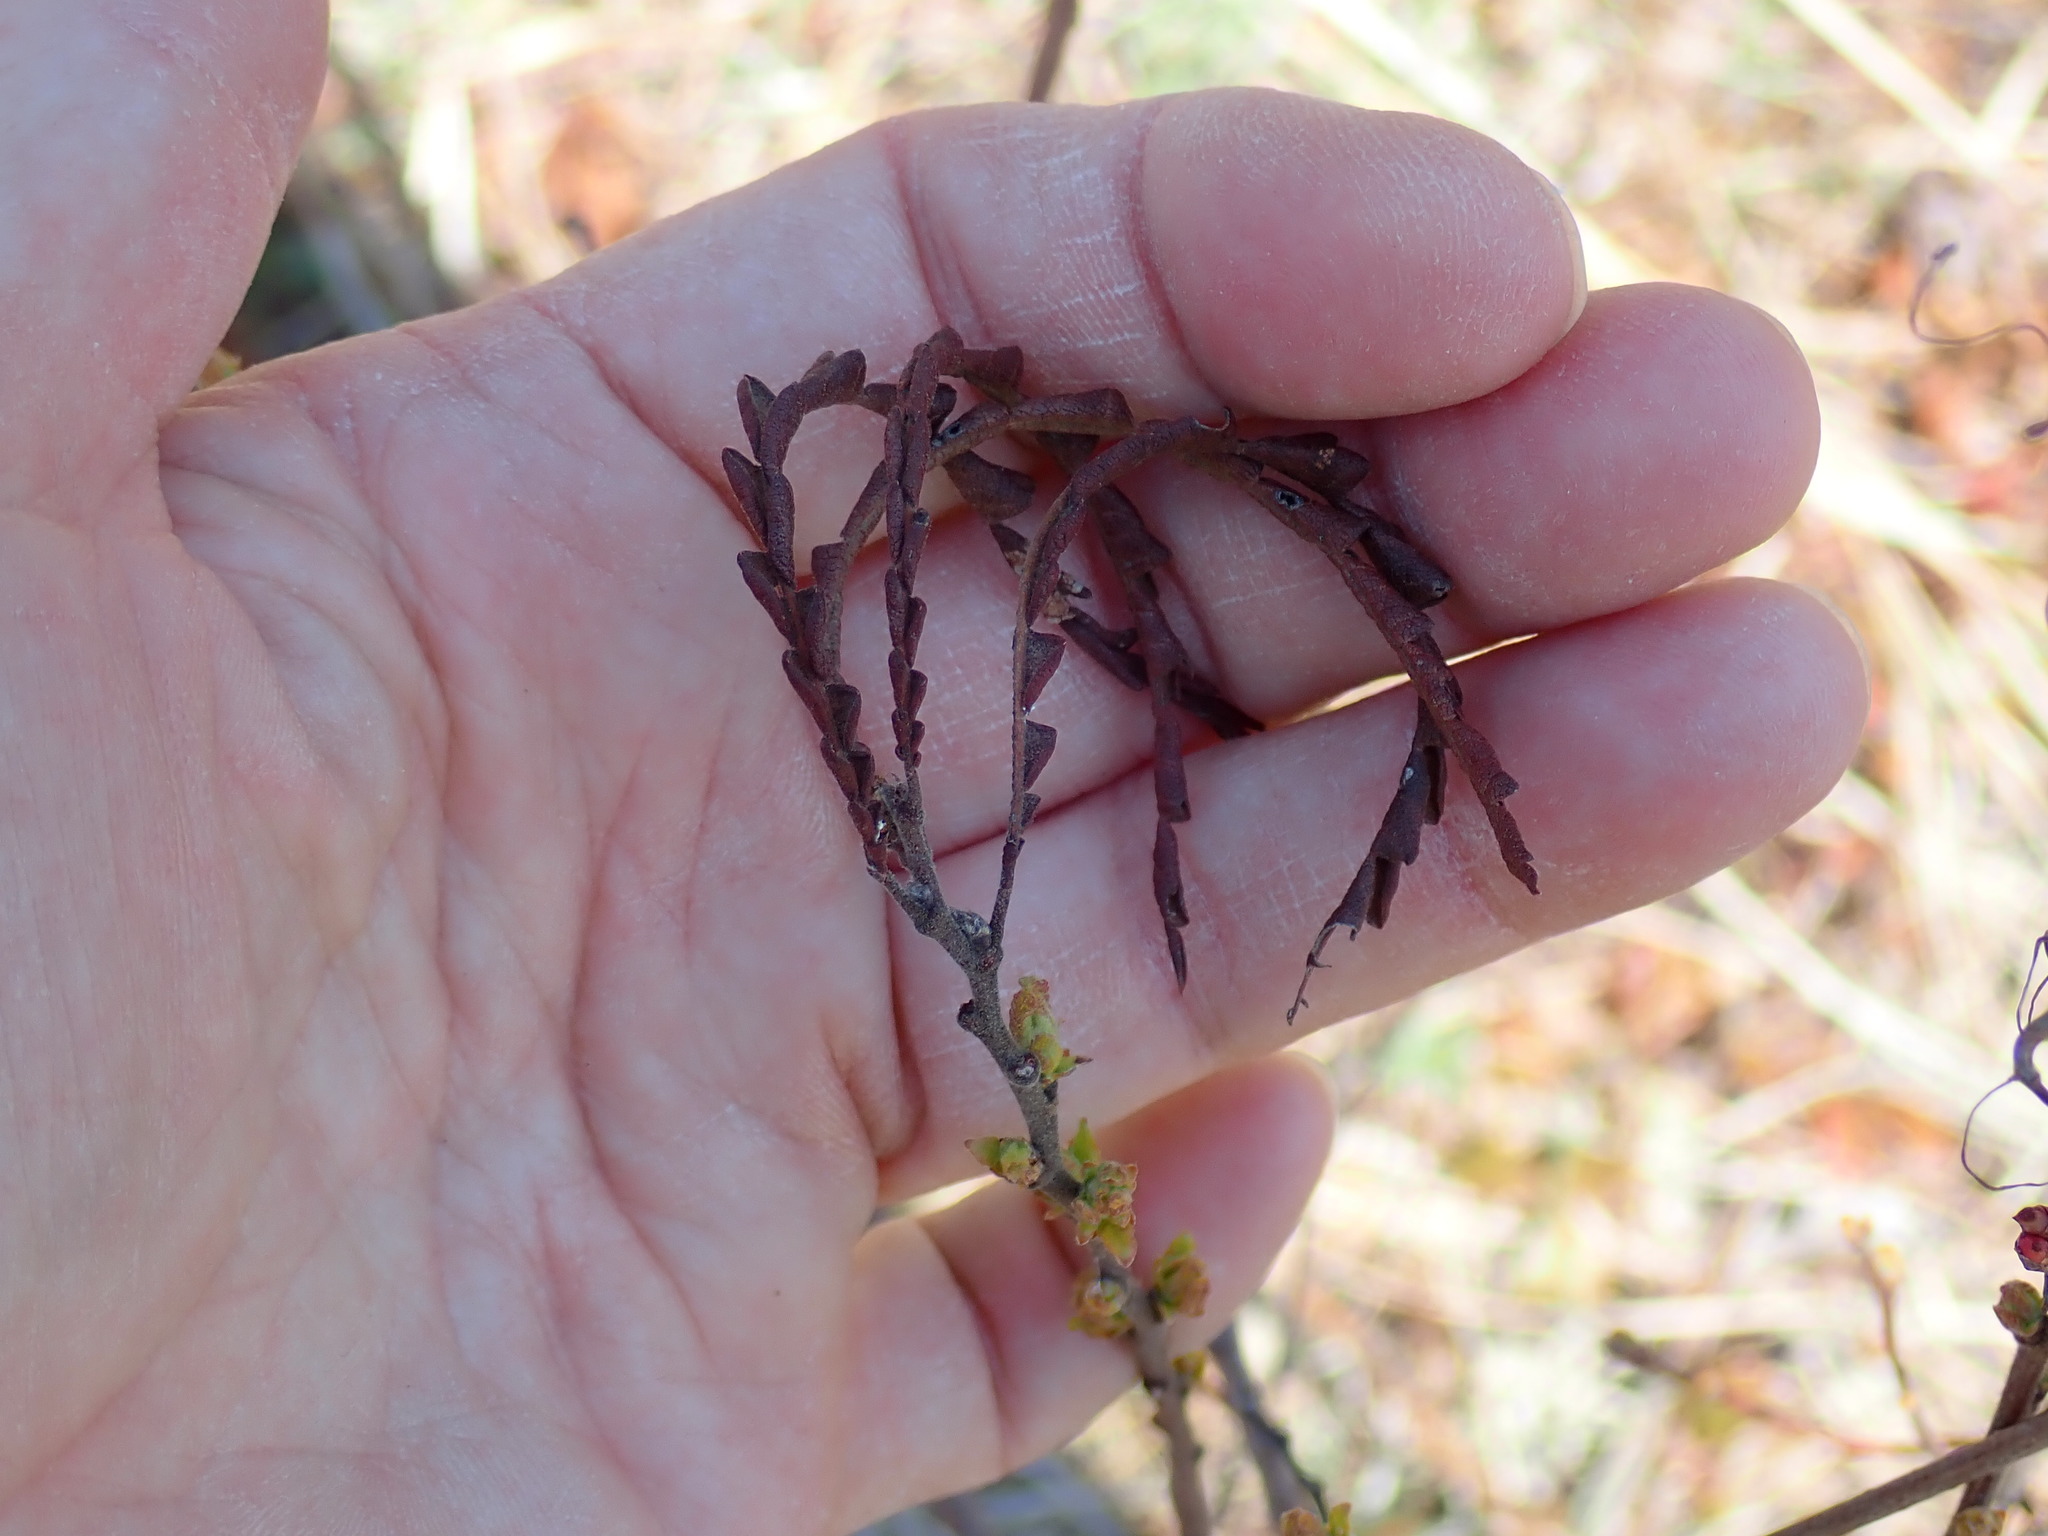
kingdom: Plantae
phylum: Tracheophyta
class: Magnoliopsida
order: Fagales
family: Myricaceae
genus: Comptonia
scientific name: Comptonia peregrina
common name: Sweet-fern
